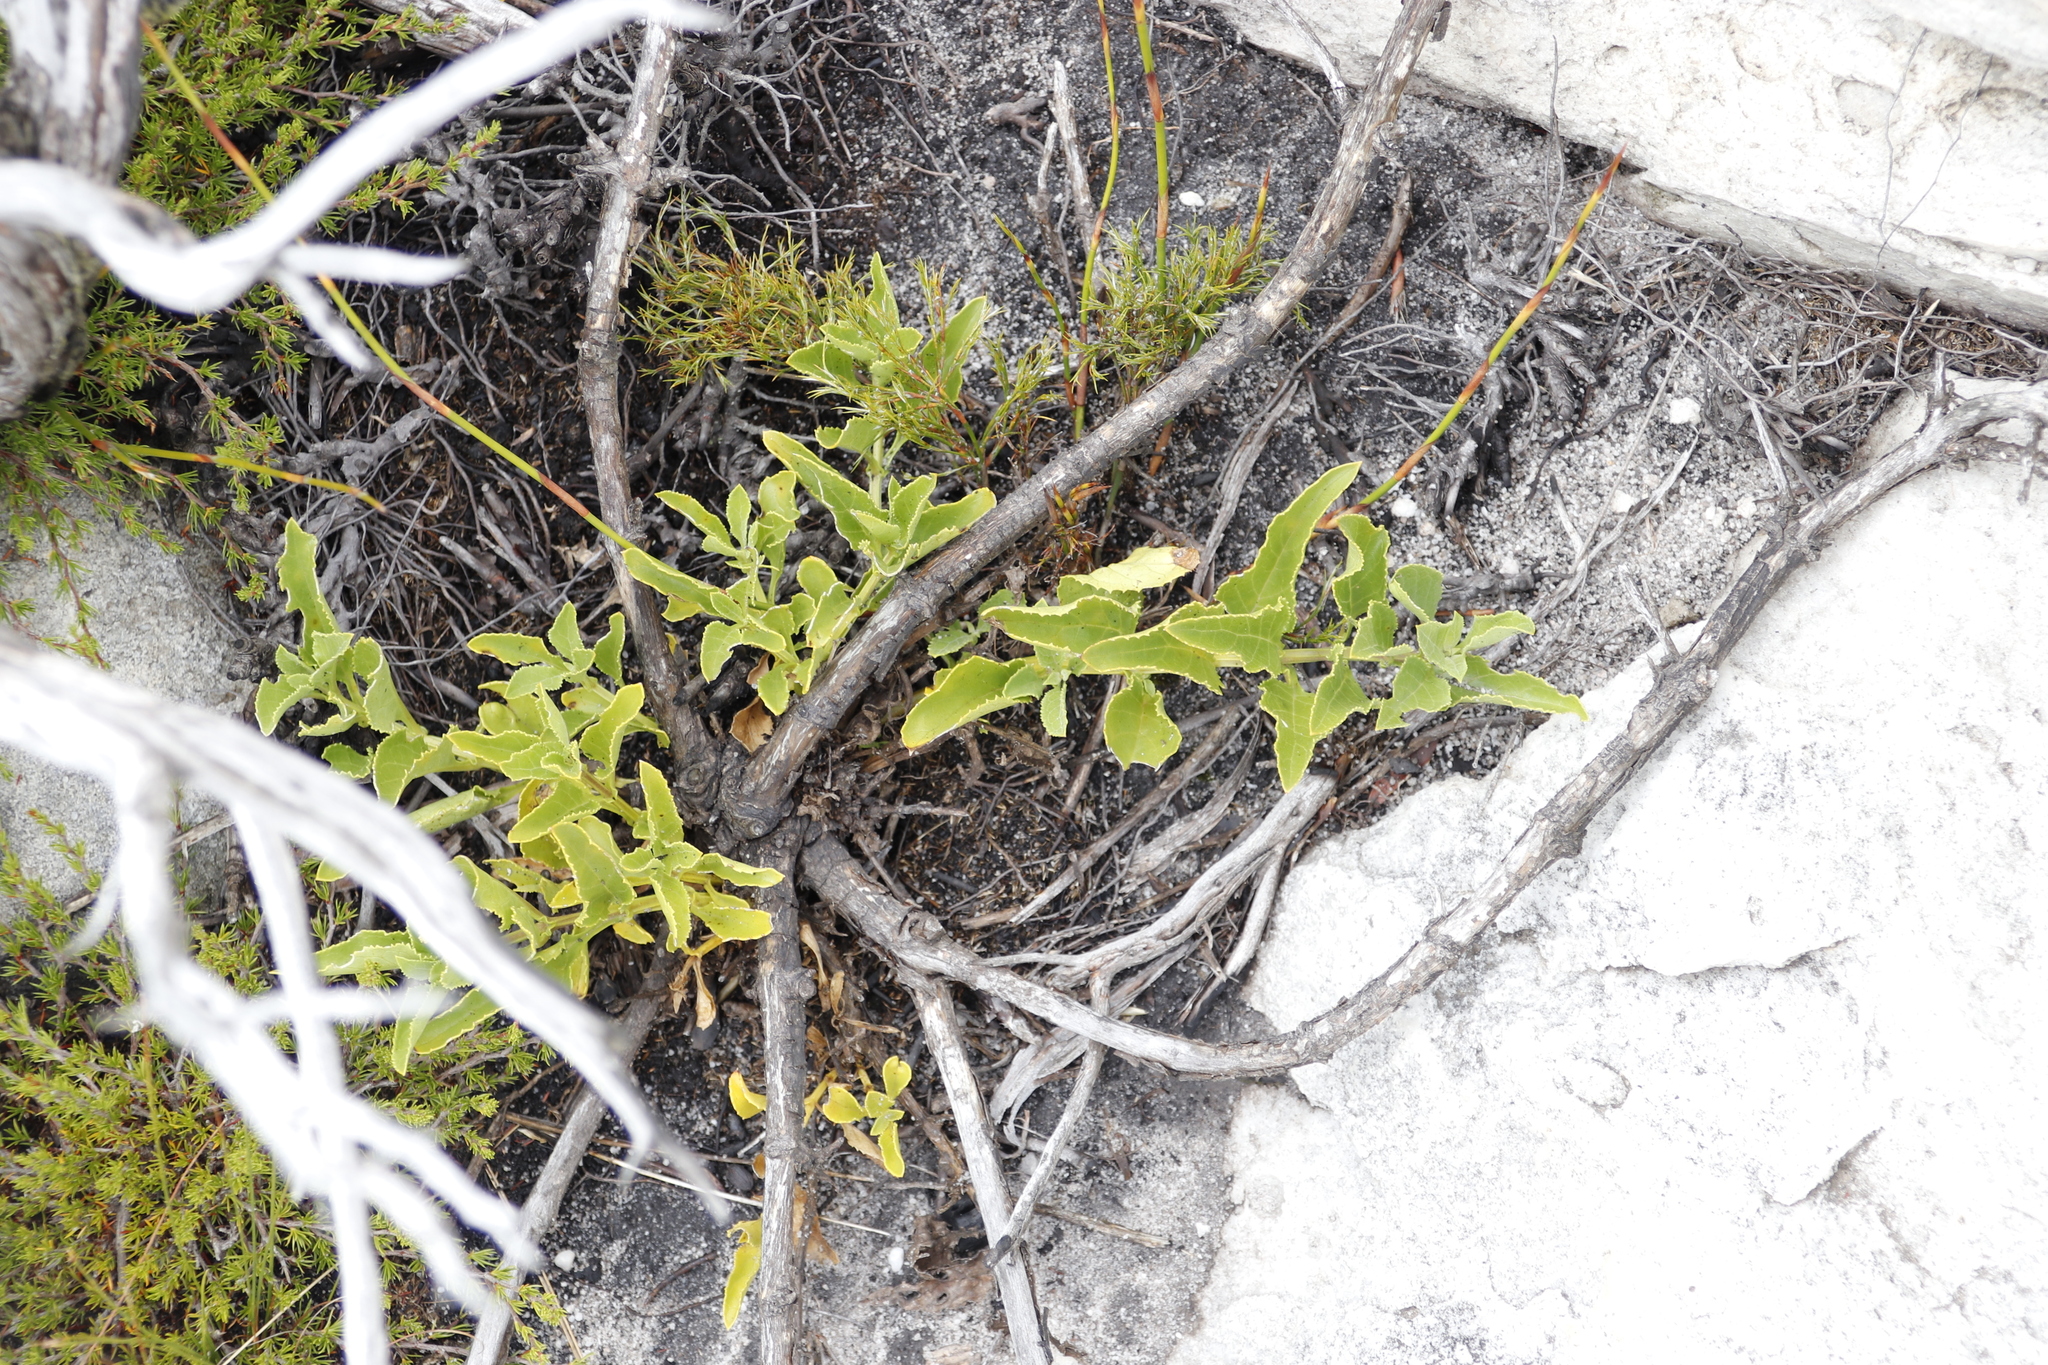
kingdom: Plantae
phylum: Tracheophyta
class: Magnoliopsida
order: Lamiales
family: Scrophulariaceae
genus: Teedia
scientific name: Teedia lucida
